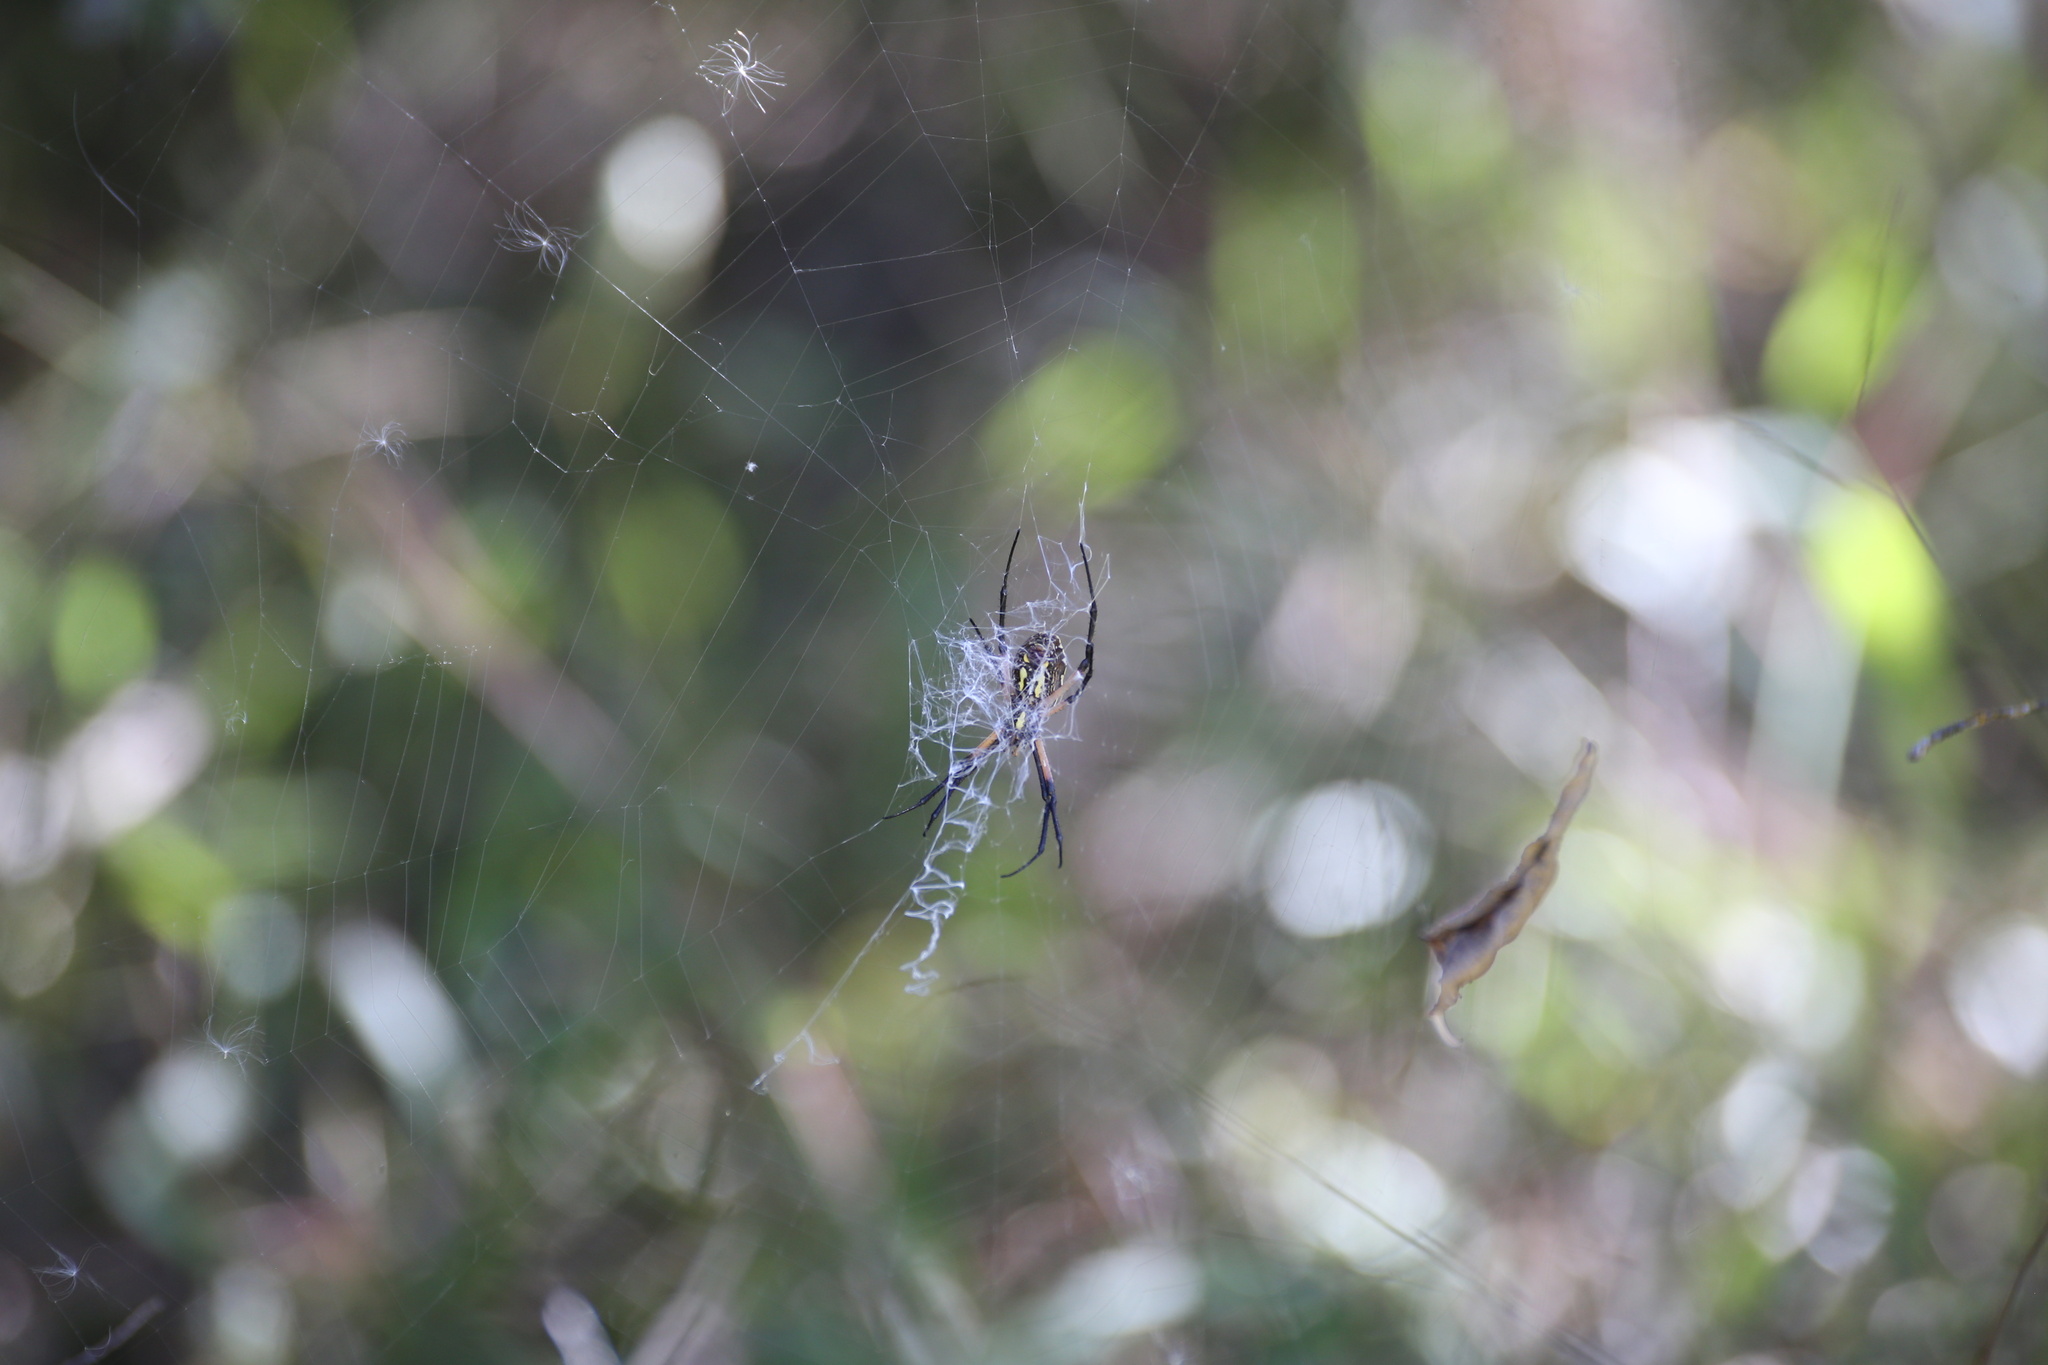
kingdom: Animalia
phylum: Arthropoda
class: Arachnida
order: Araneae
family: Araneidae
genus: Argiope
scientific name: Argiope aurantia
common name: Orb weavers
